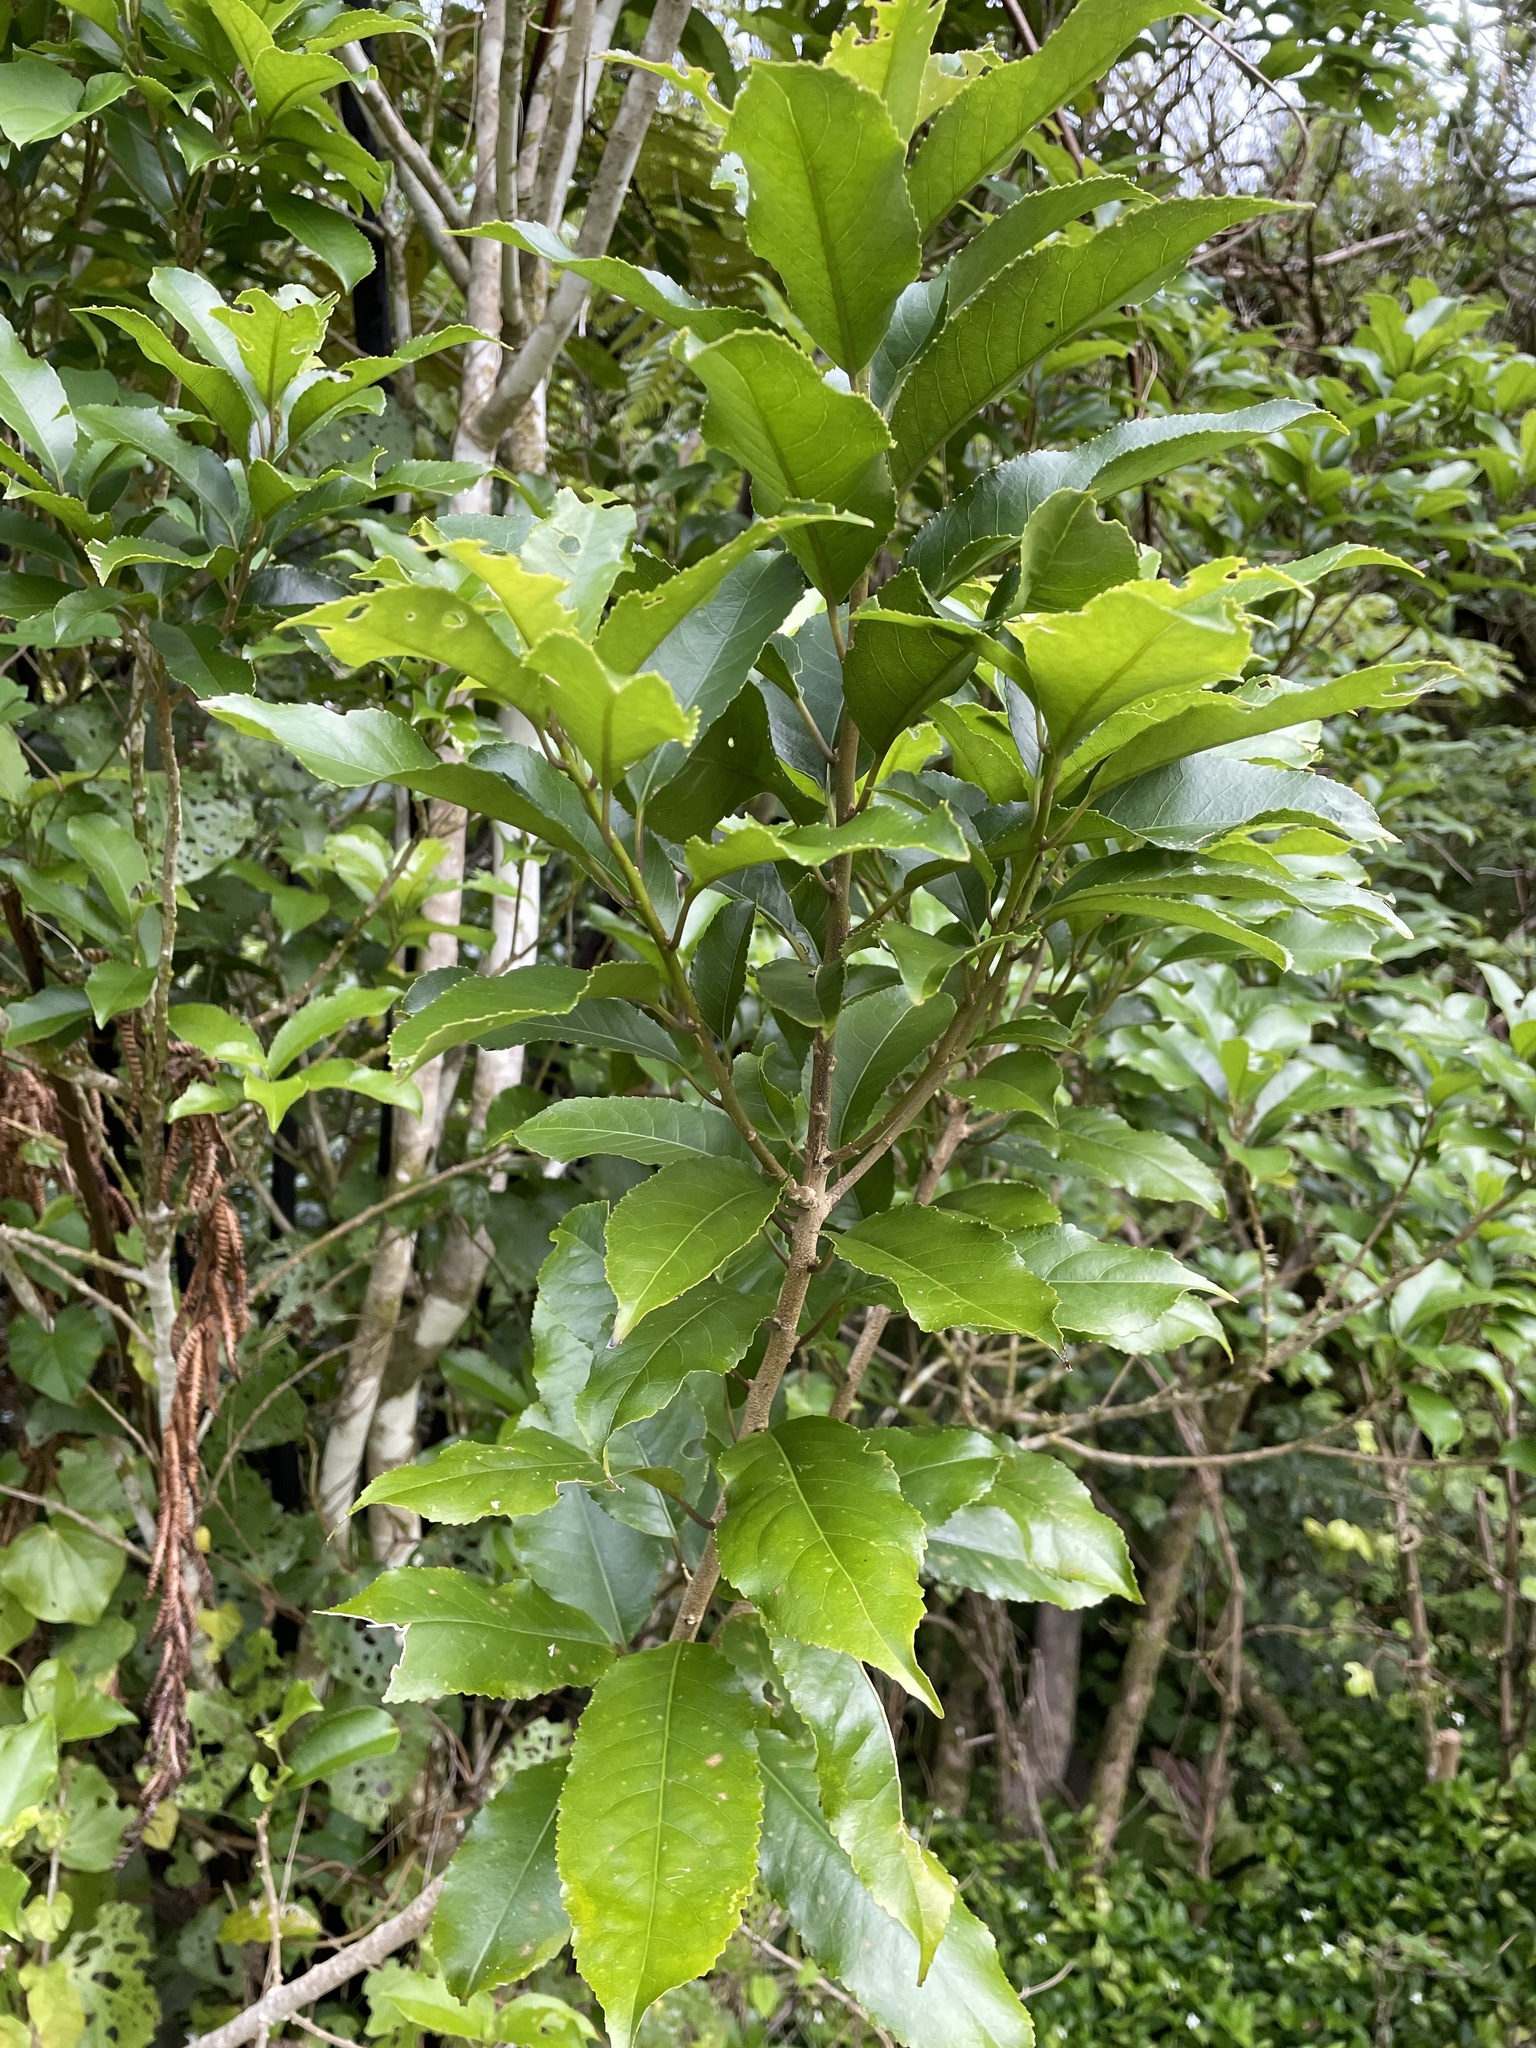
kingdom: Plantae
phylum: Tracheophyta
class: Magnoliopsida
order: Malpighiales
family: Violaceae
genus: Melicytus
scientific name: Melicytus ramiflorus
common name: Mahoe
